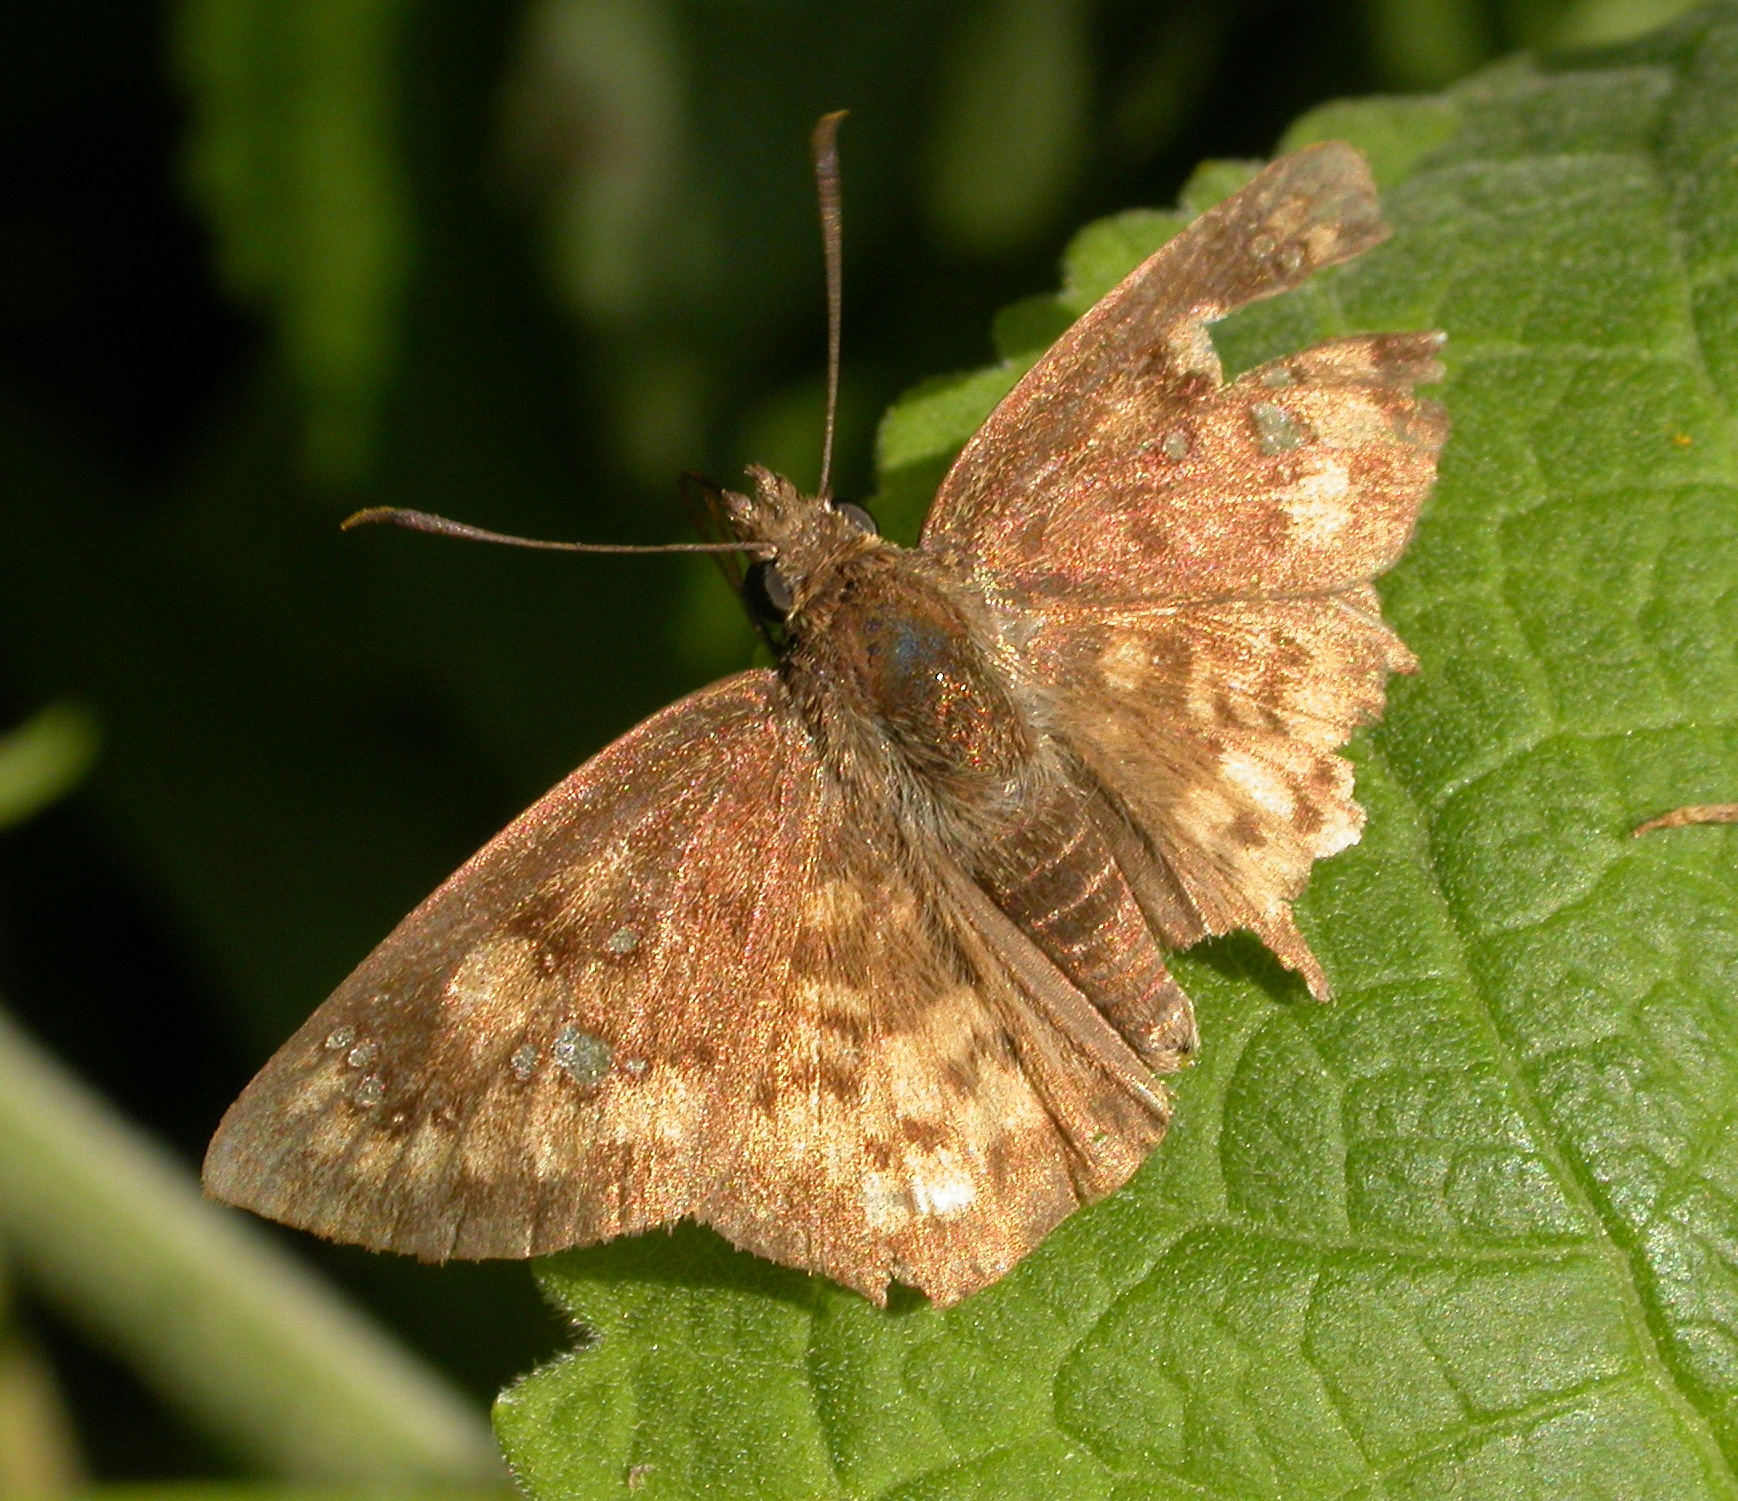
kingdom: Animalia
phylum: Arthropoda
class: Insecta
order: Lepidoptera
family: Hesperiidae
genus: Polyctor
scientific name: Polyctor enops
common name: Enops tufted-skipper
